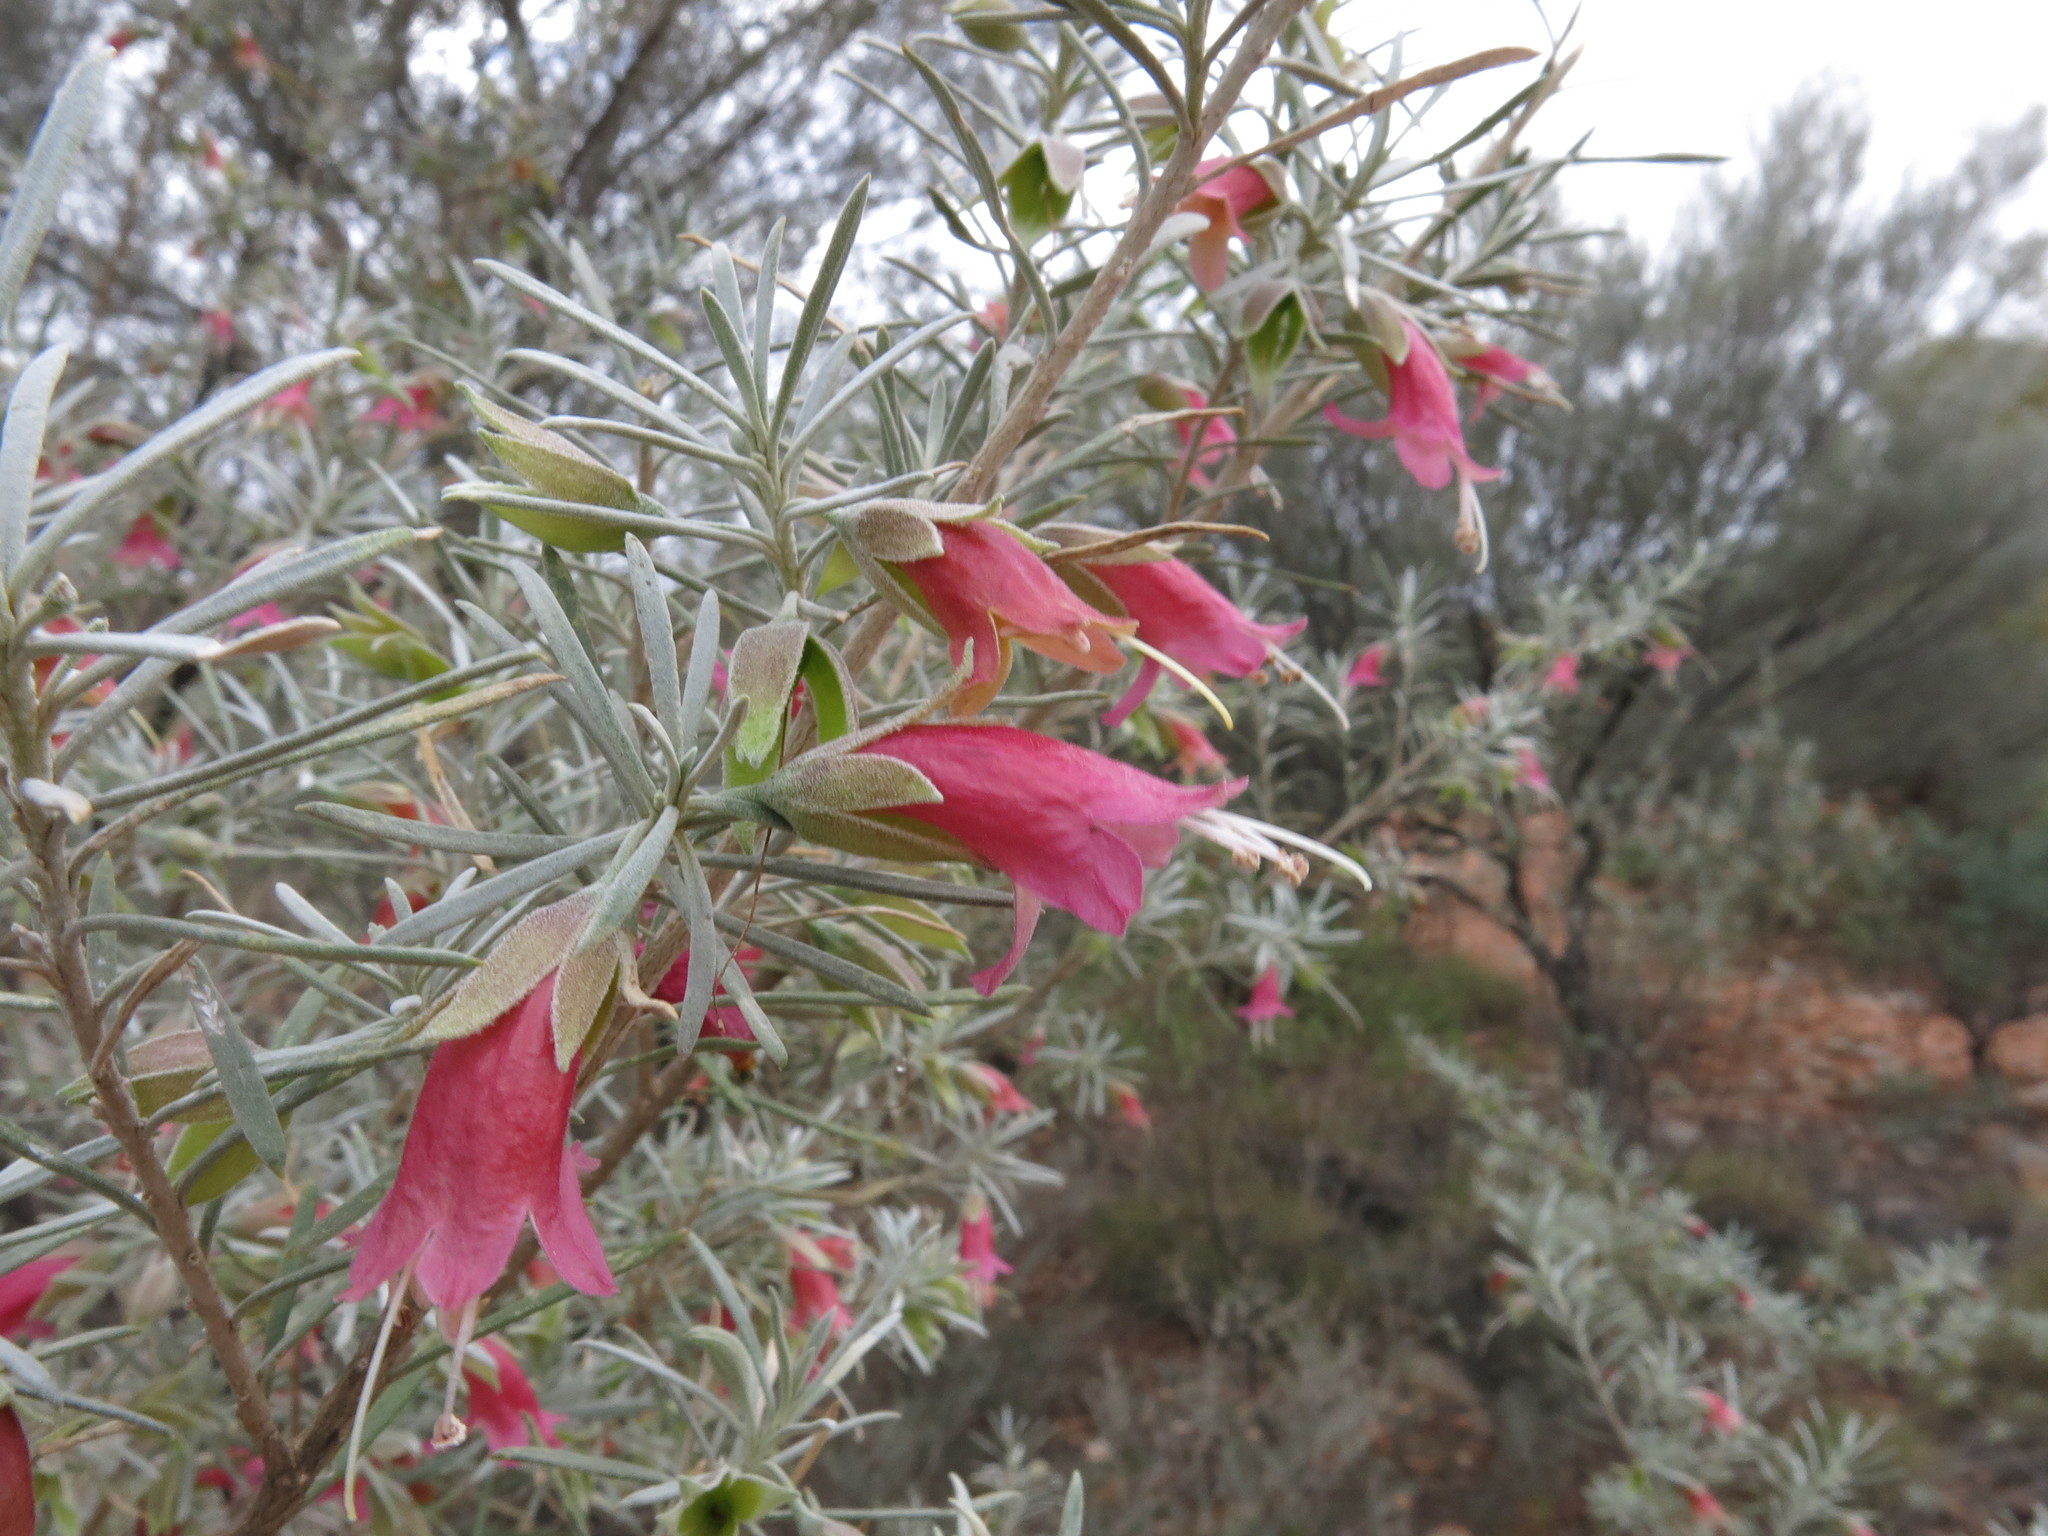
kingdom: Plantae
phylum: Tracheophyta
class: Magnoliopsida
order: Lamiales
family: Scrophulariaceae
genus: Eremophila
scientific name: Eremophila latrobei
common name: Crimson turkeybush
